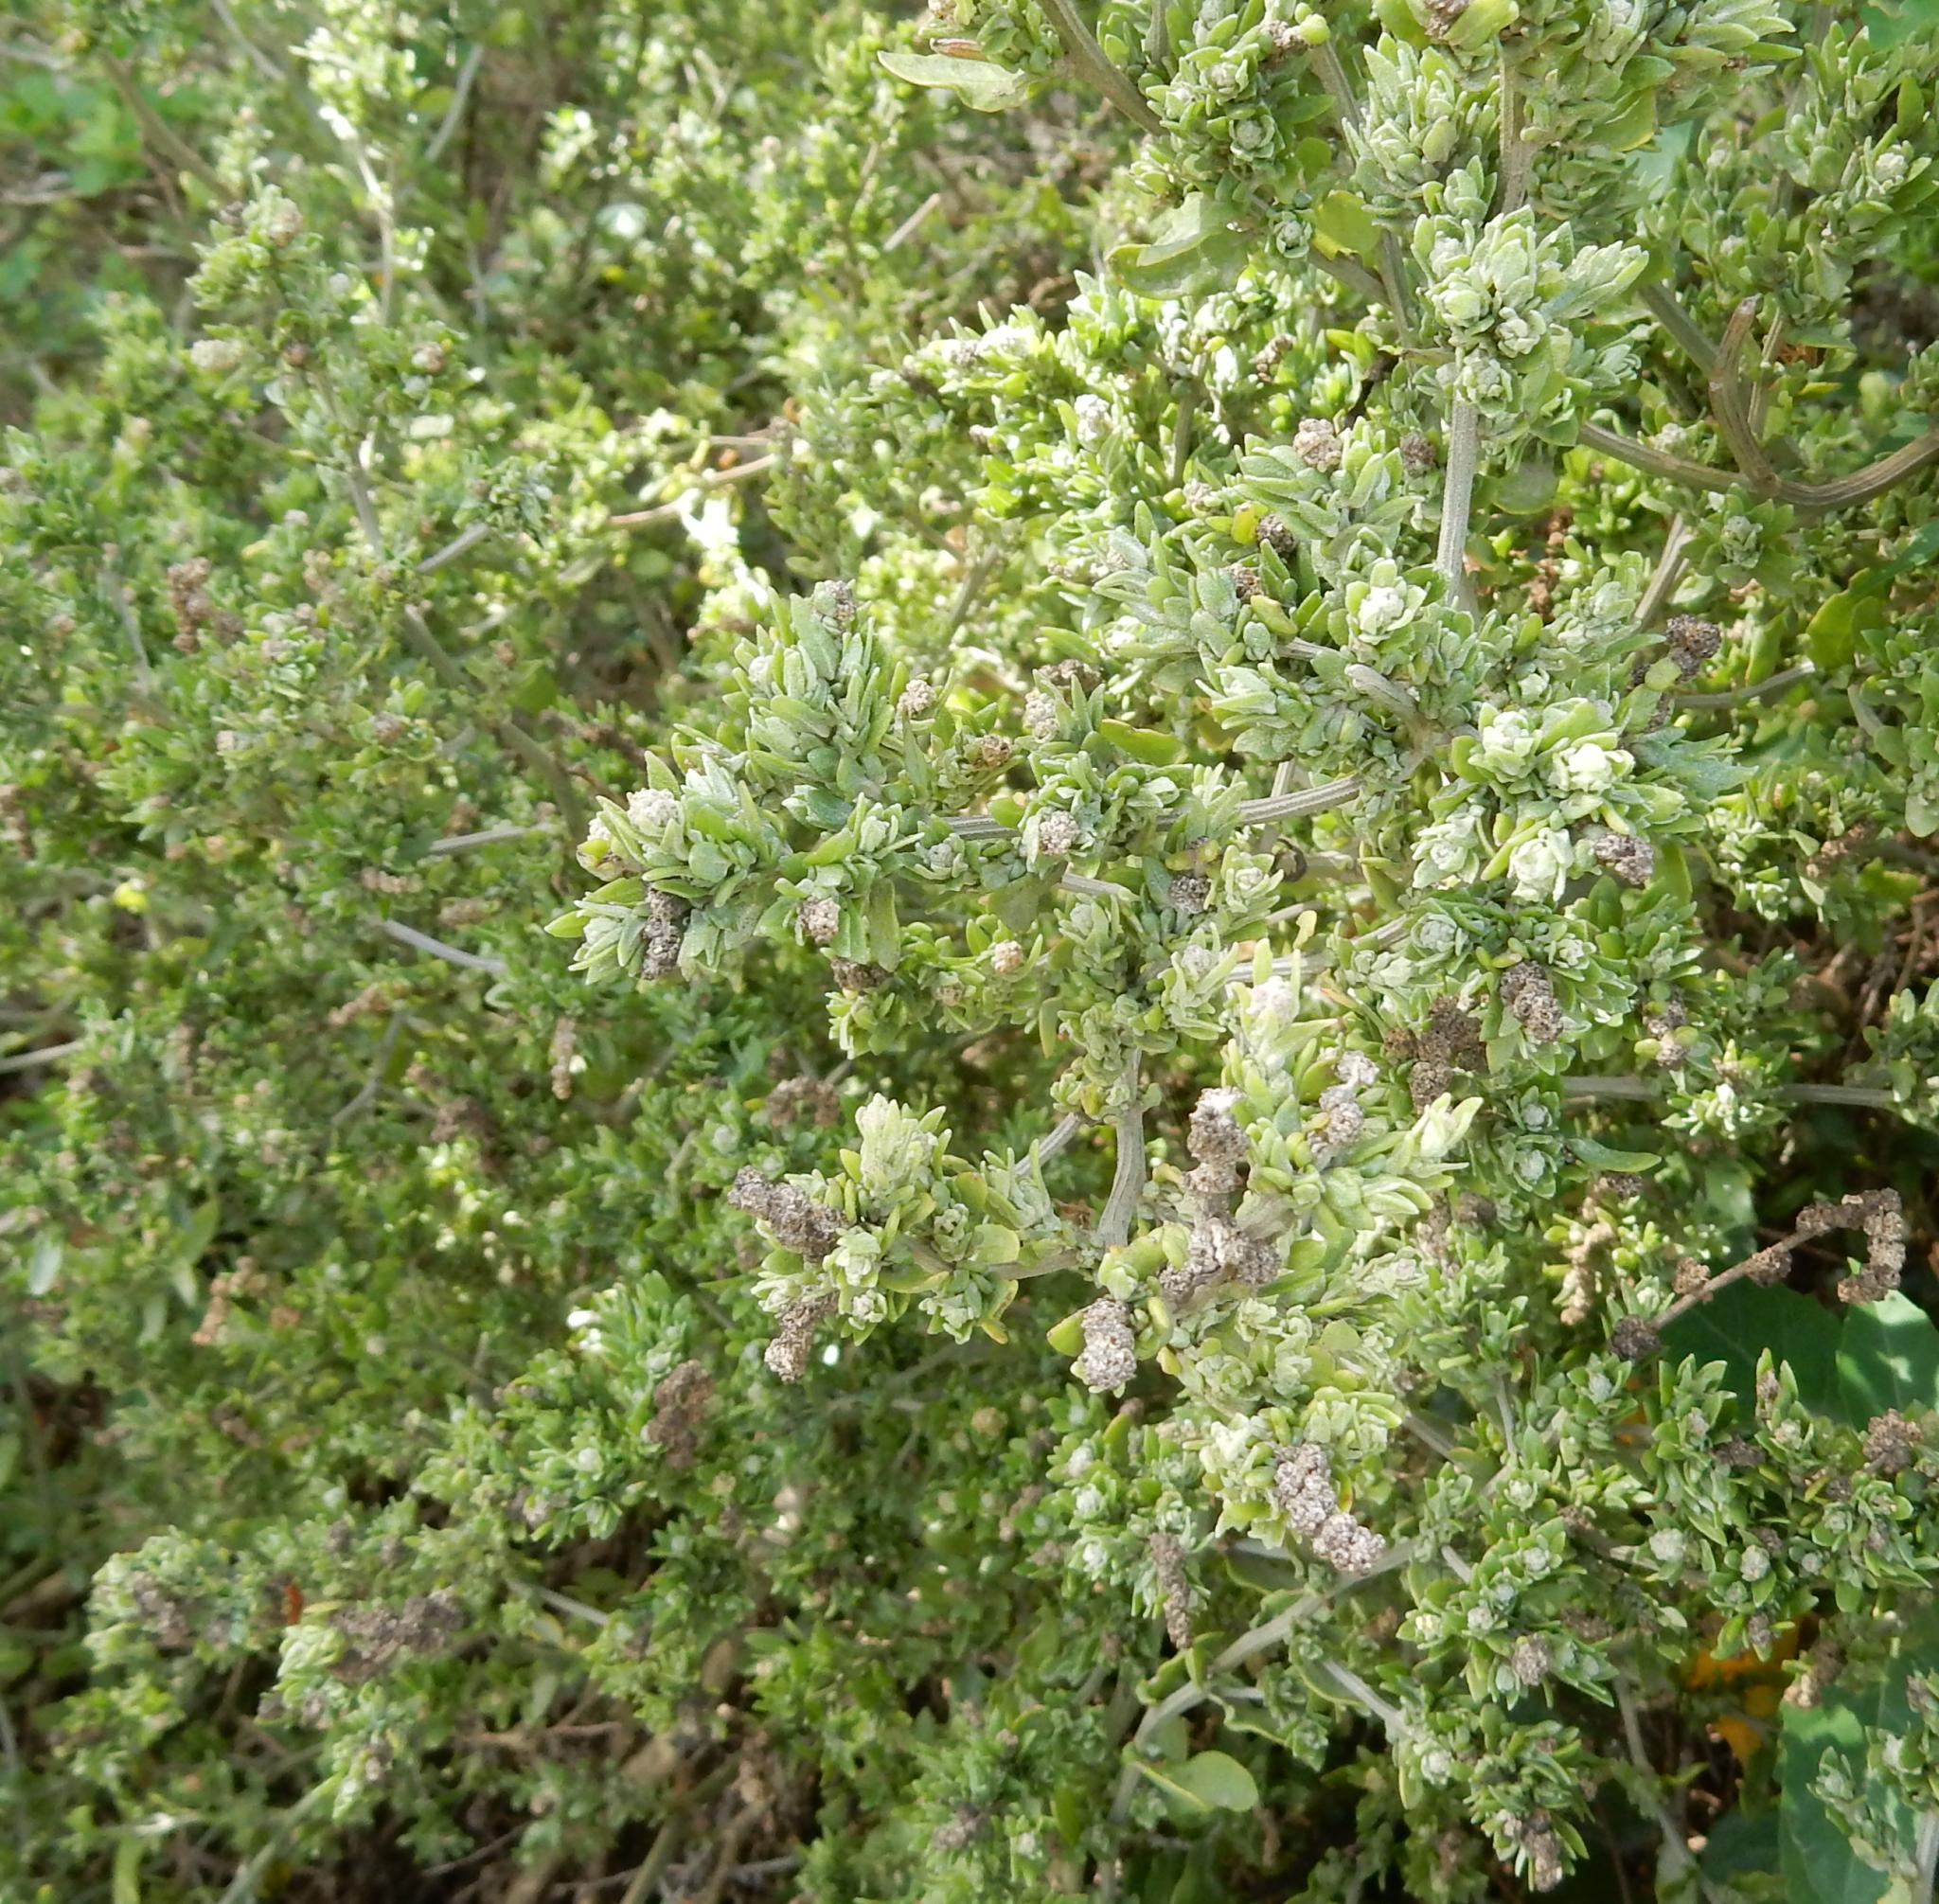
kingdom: Plantae
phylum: Tracheophyta
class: Magnoliopsida
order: Caryophyllales
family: Amaranthaceae
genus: Exomis
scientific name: Exomis microphylla
